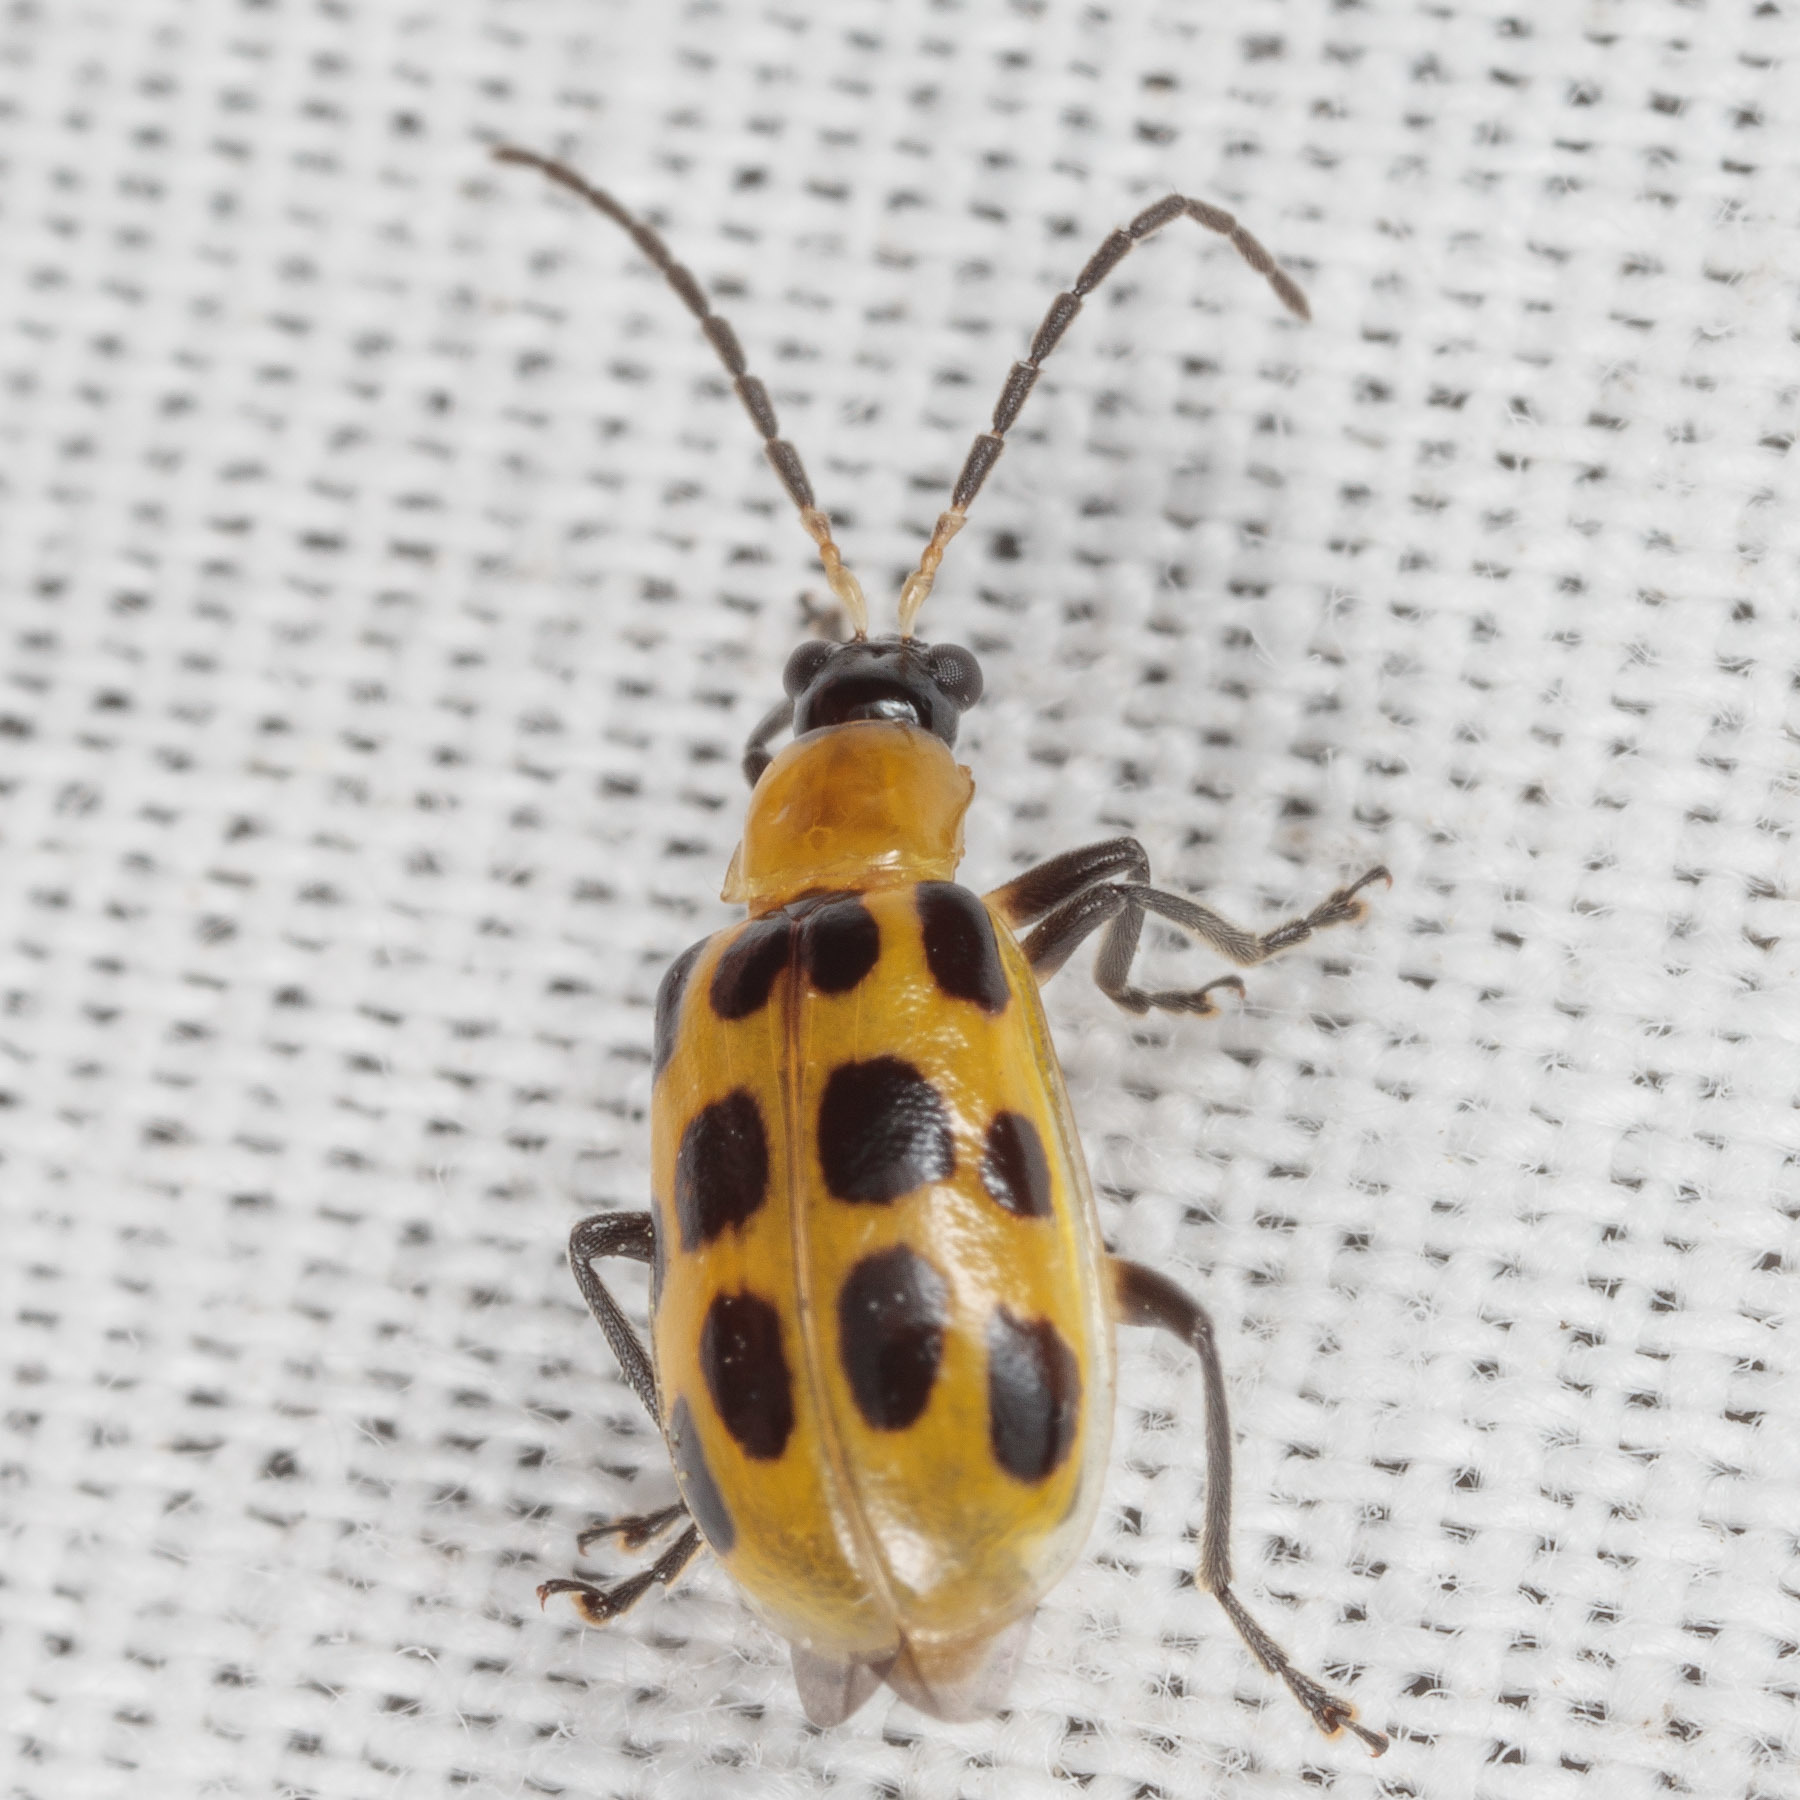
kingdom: Animalia
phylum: Arthropoda
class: Insecta
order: Coleoptera
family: Chrysomelidae
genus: Diabrotica
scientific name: Diabrotica undecimpunctata
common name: Spotted cucumber beetle
